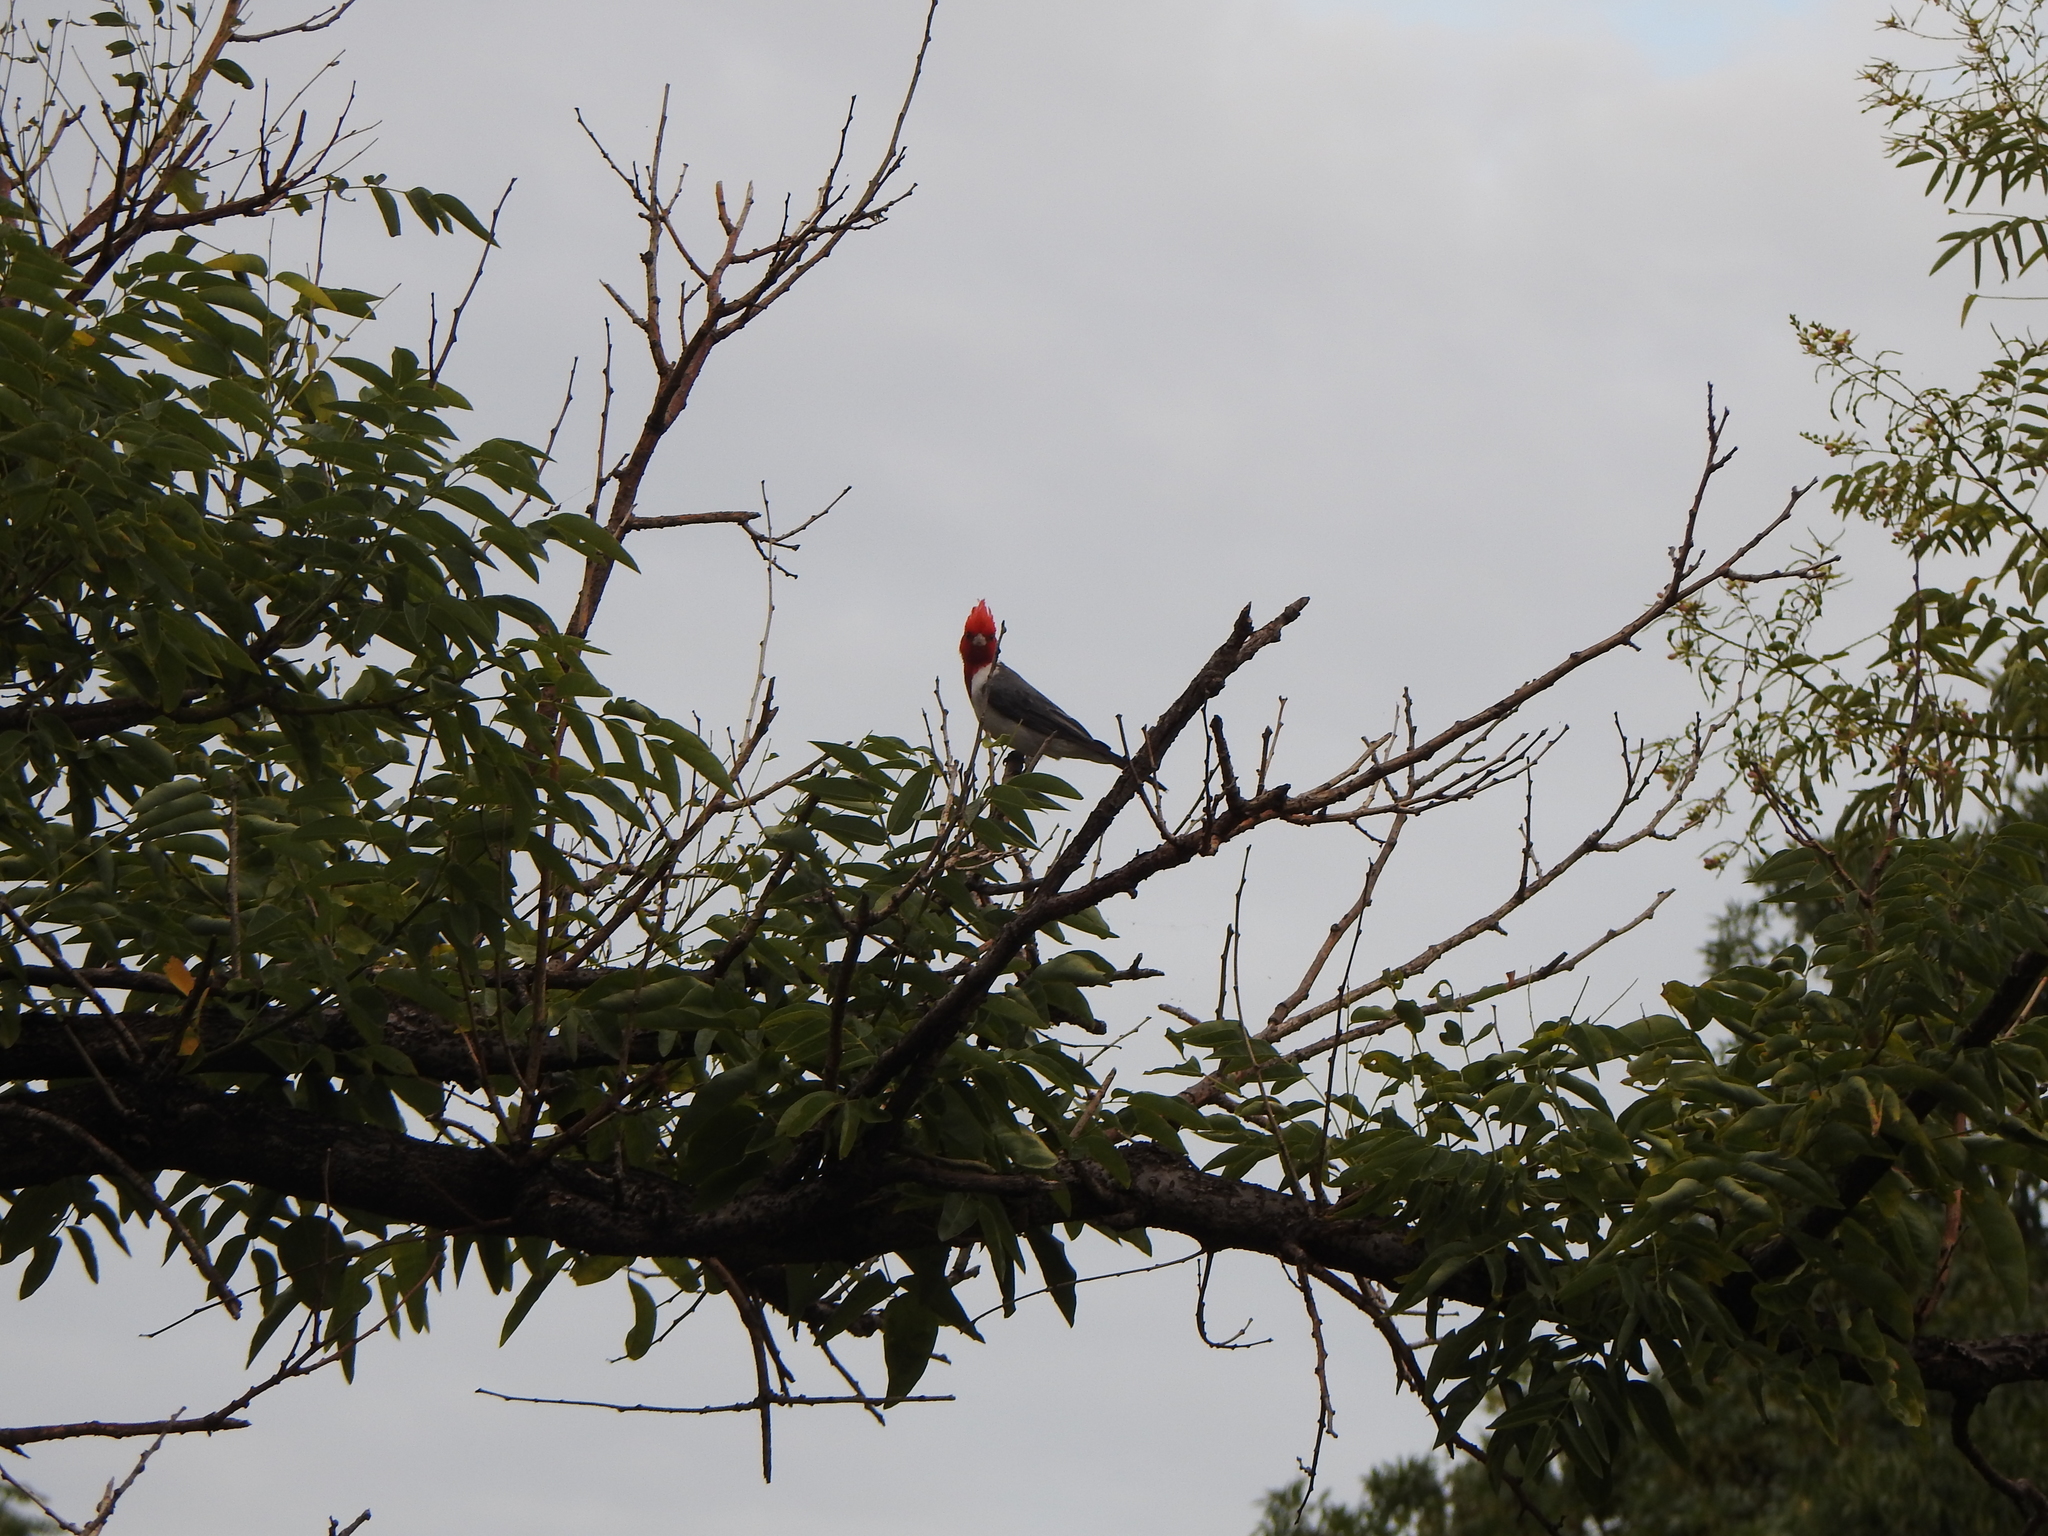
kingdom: Animalia
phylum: Chordata
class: Aves
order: Passeriformes
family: Thraupidae
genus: Paroaria
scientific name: Paroaria coronata
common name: Red-crested cardinal
